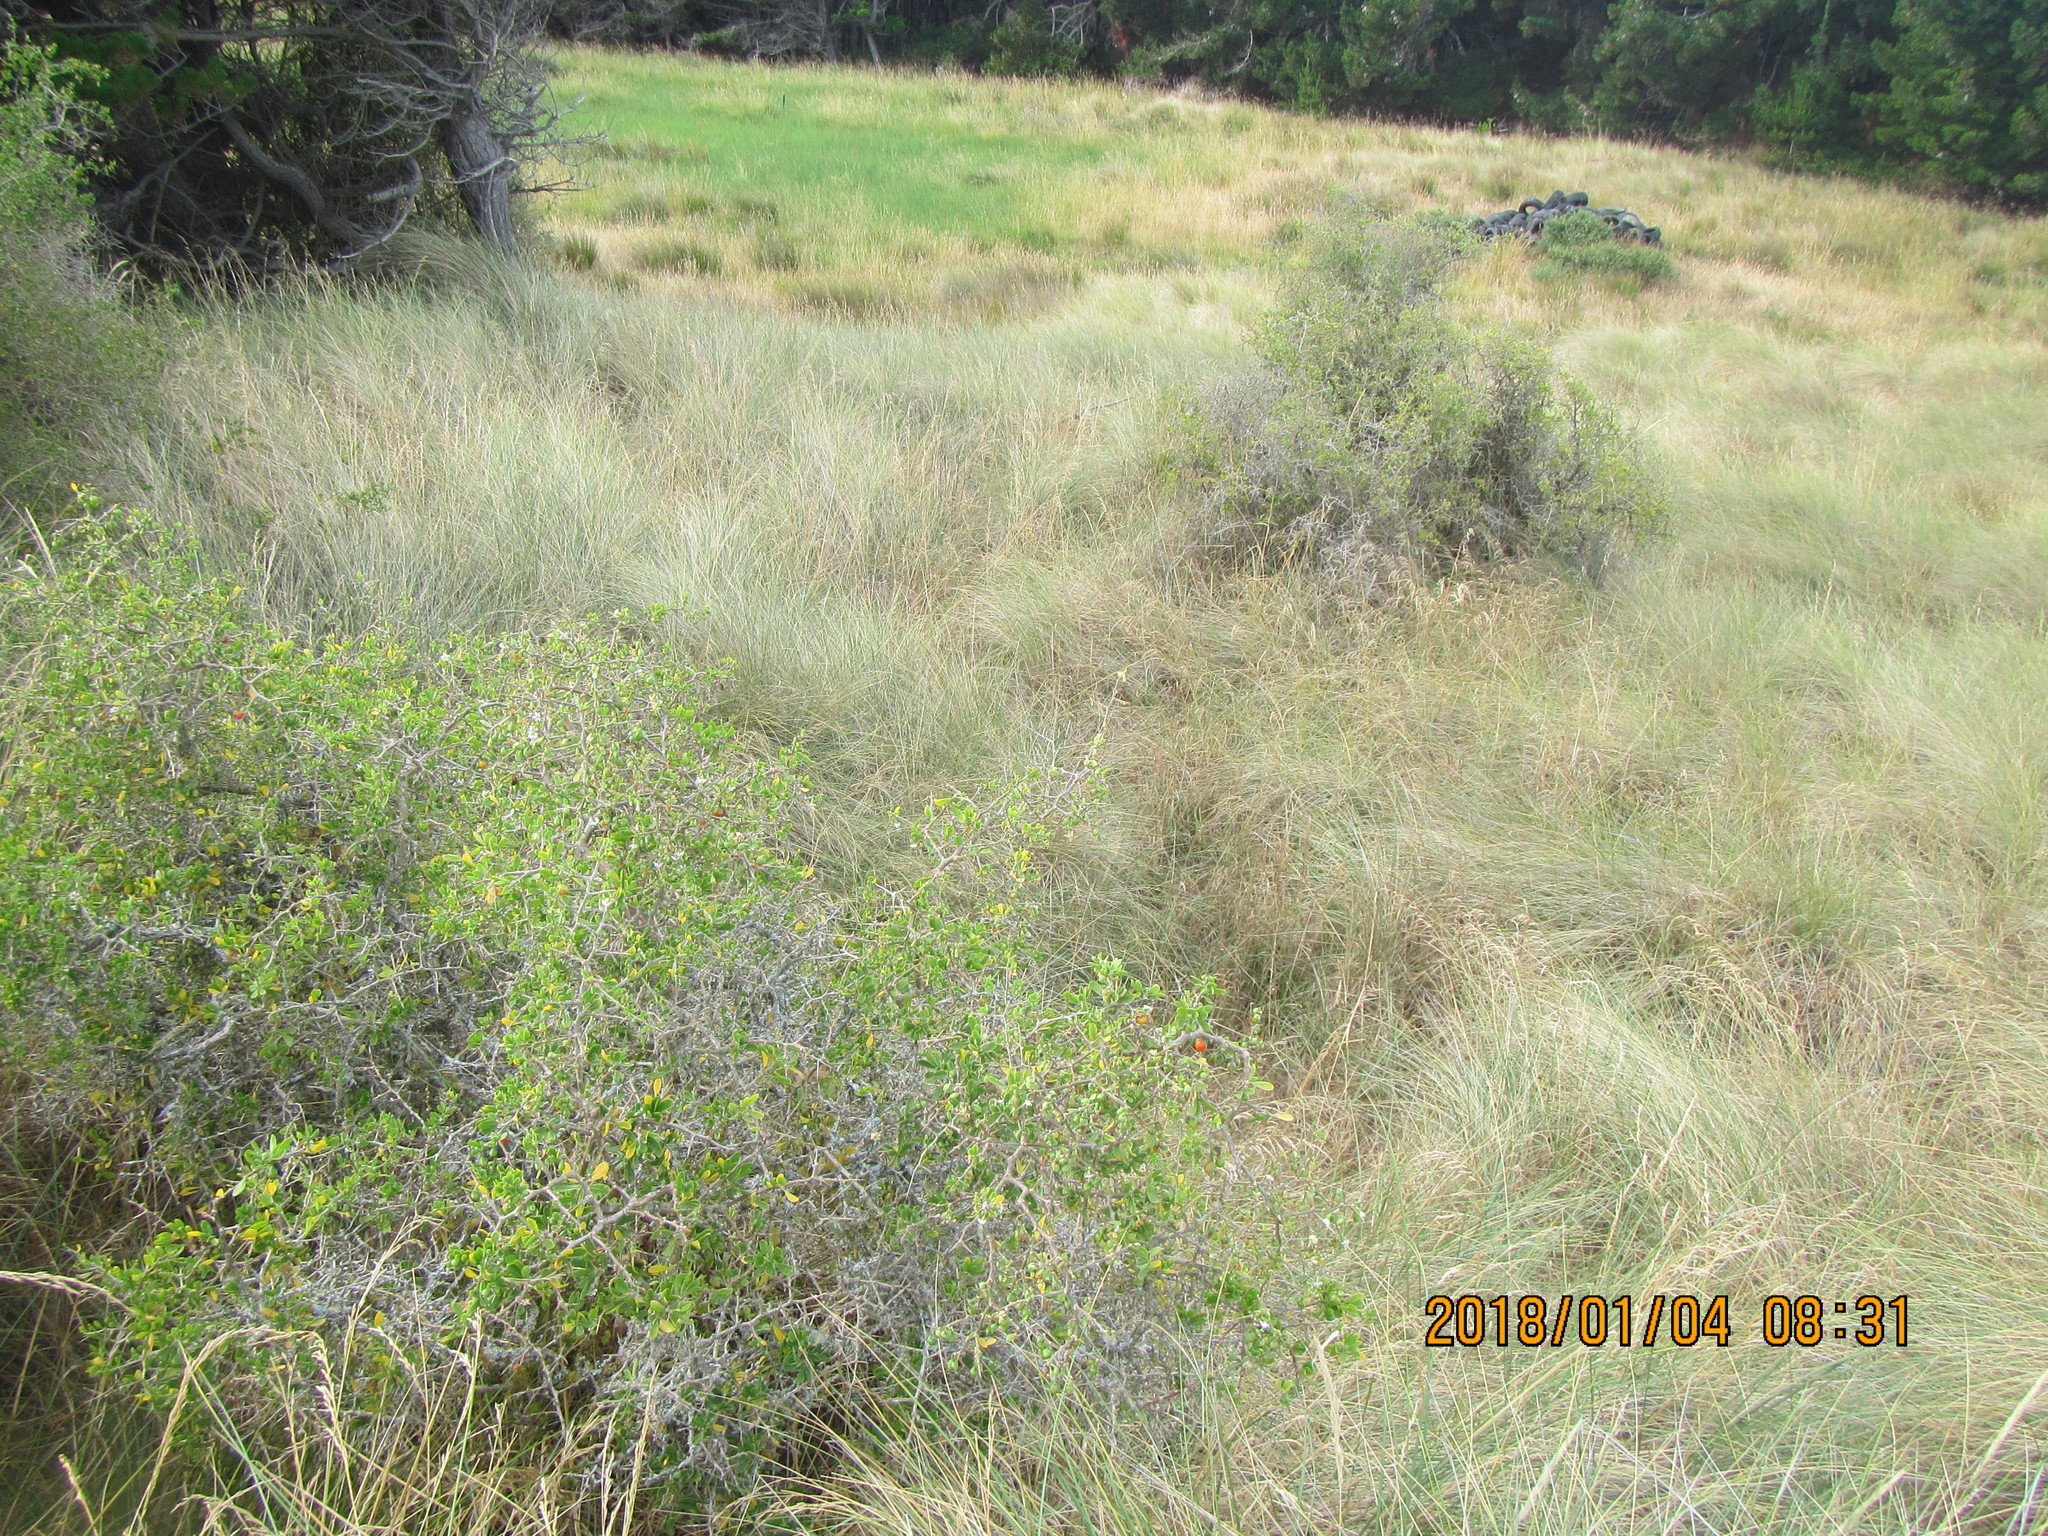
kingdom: Plantae
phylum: Tracheophyta
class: Magnoliopsida
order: Solanales
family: Solanaceae
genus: Lycium
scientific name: Lycium ferocissimum
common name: African boxthorn
